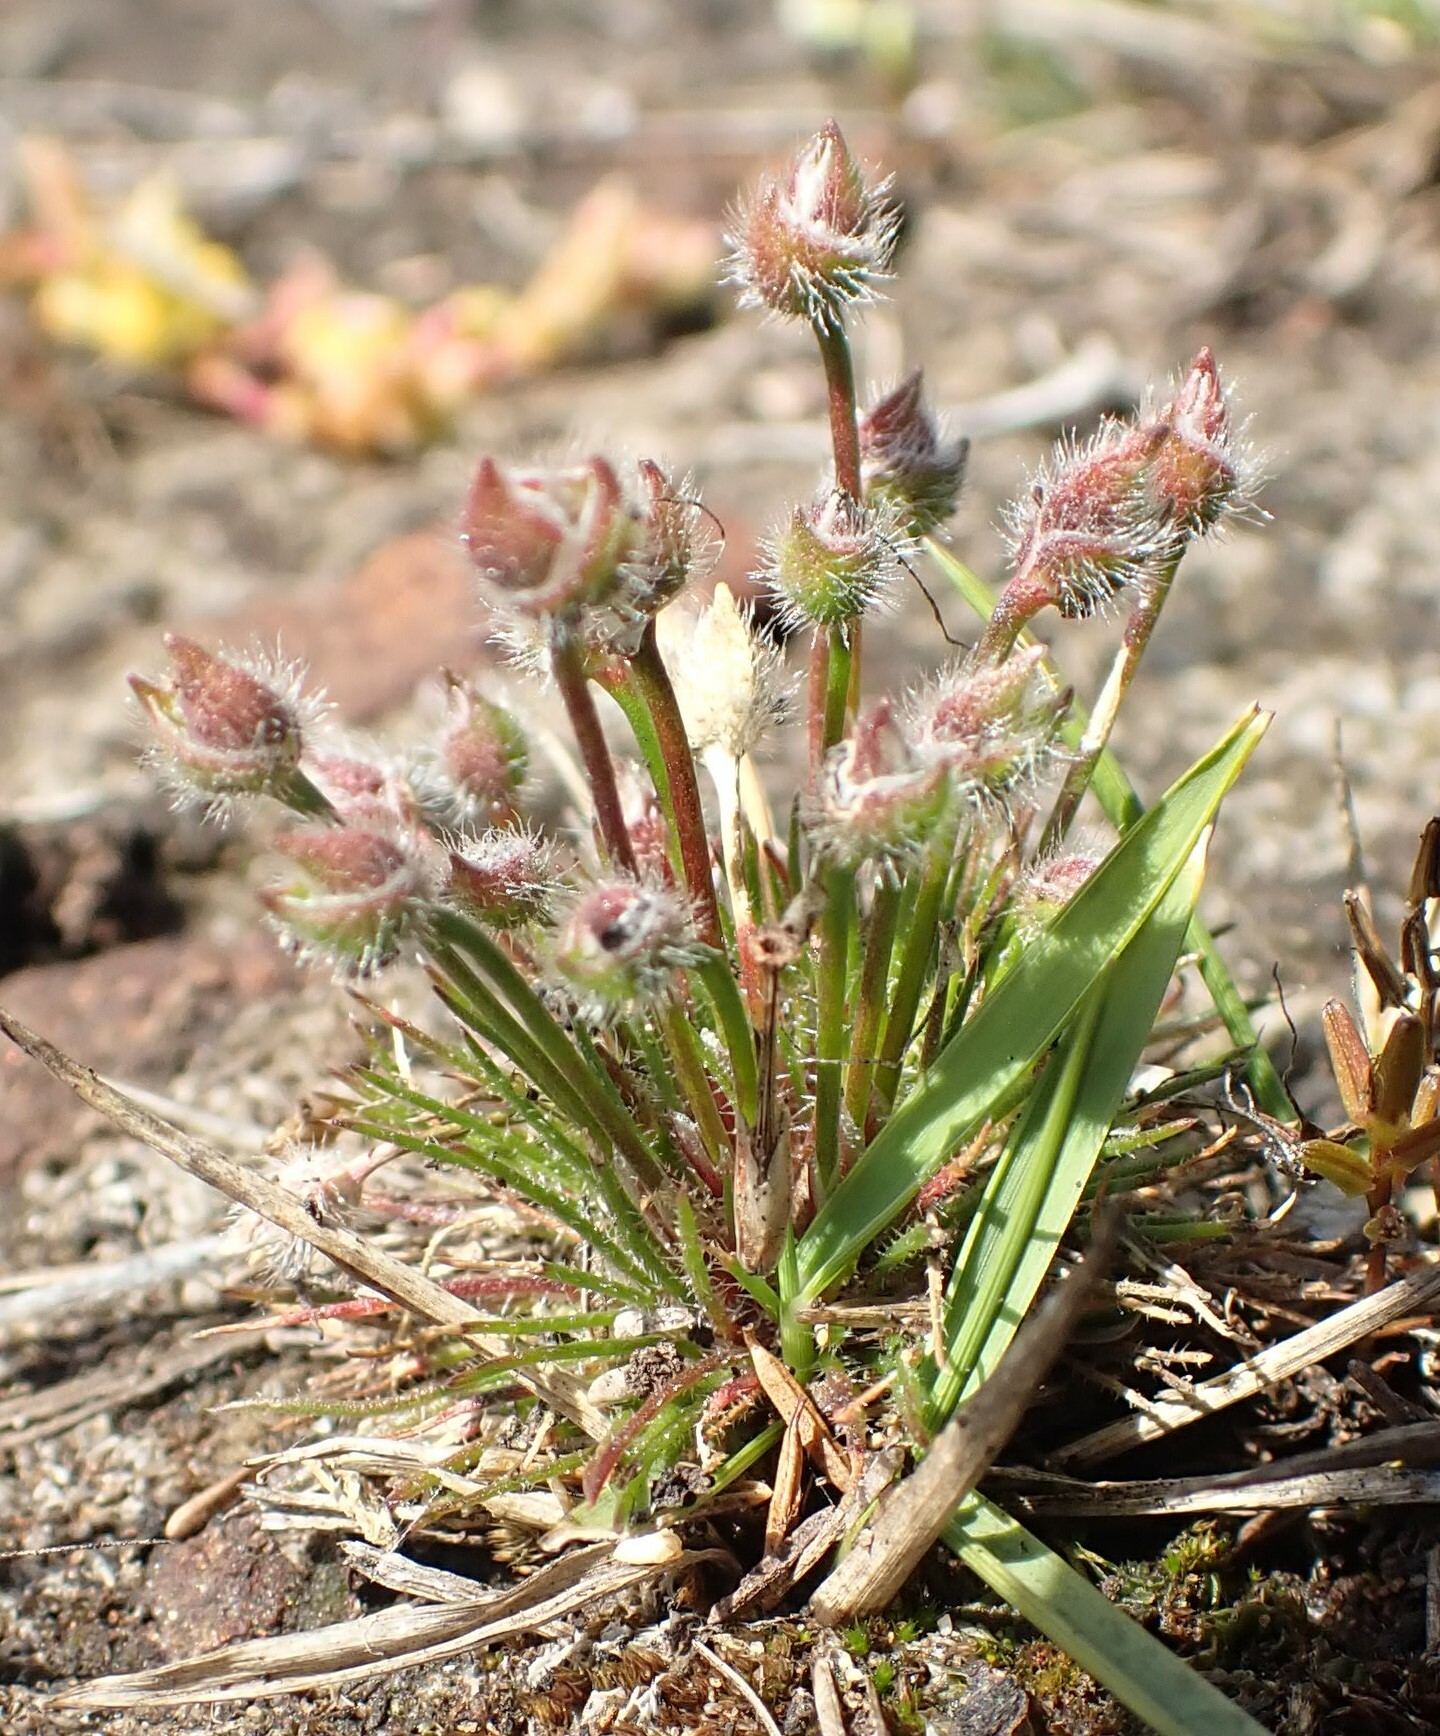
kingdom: Plantae
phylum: Tracheophyta
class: Liliopsida
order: Poales
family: Restionaceae
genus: Centrolepis
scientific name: Centrolepis strigosa
